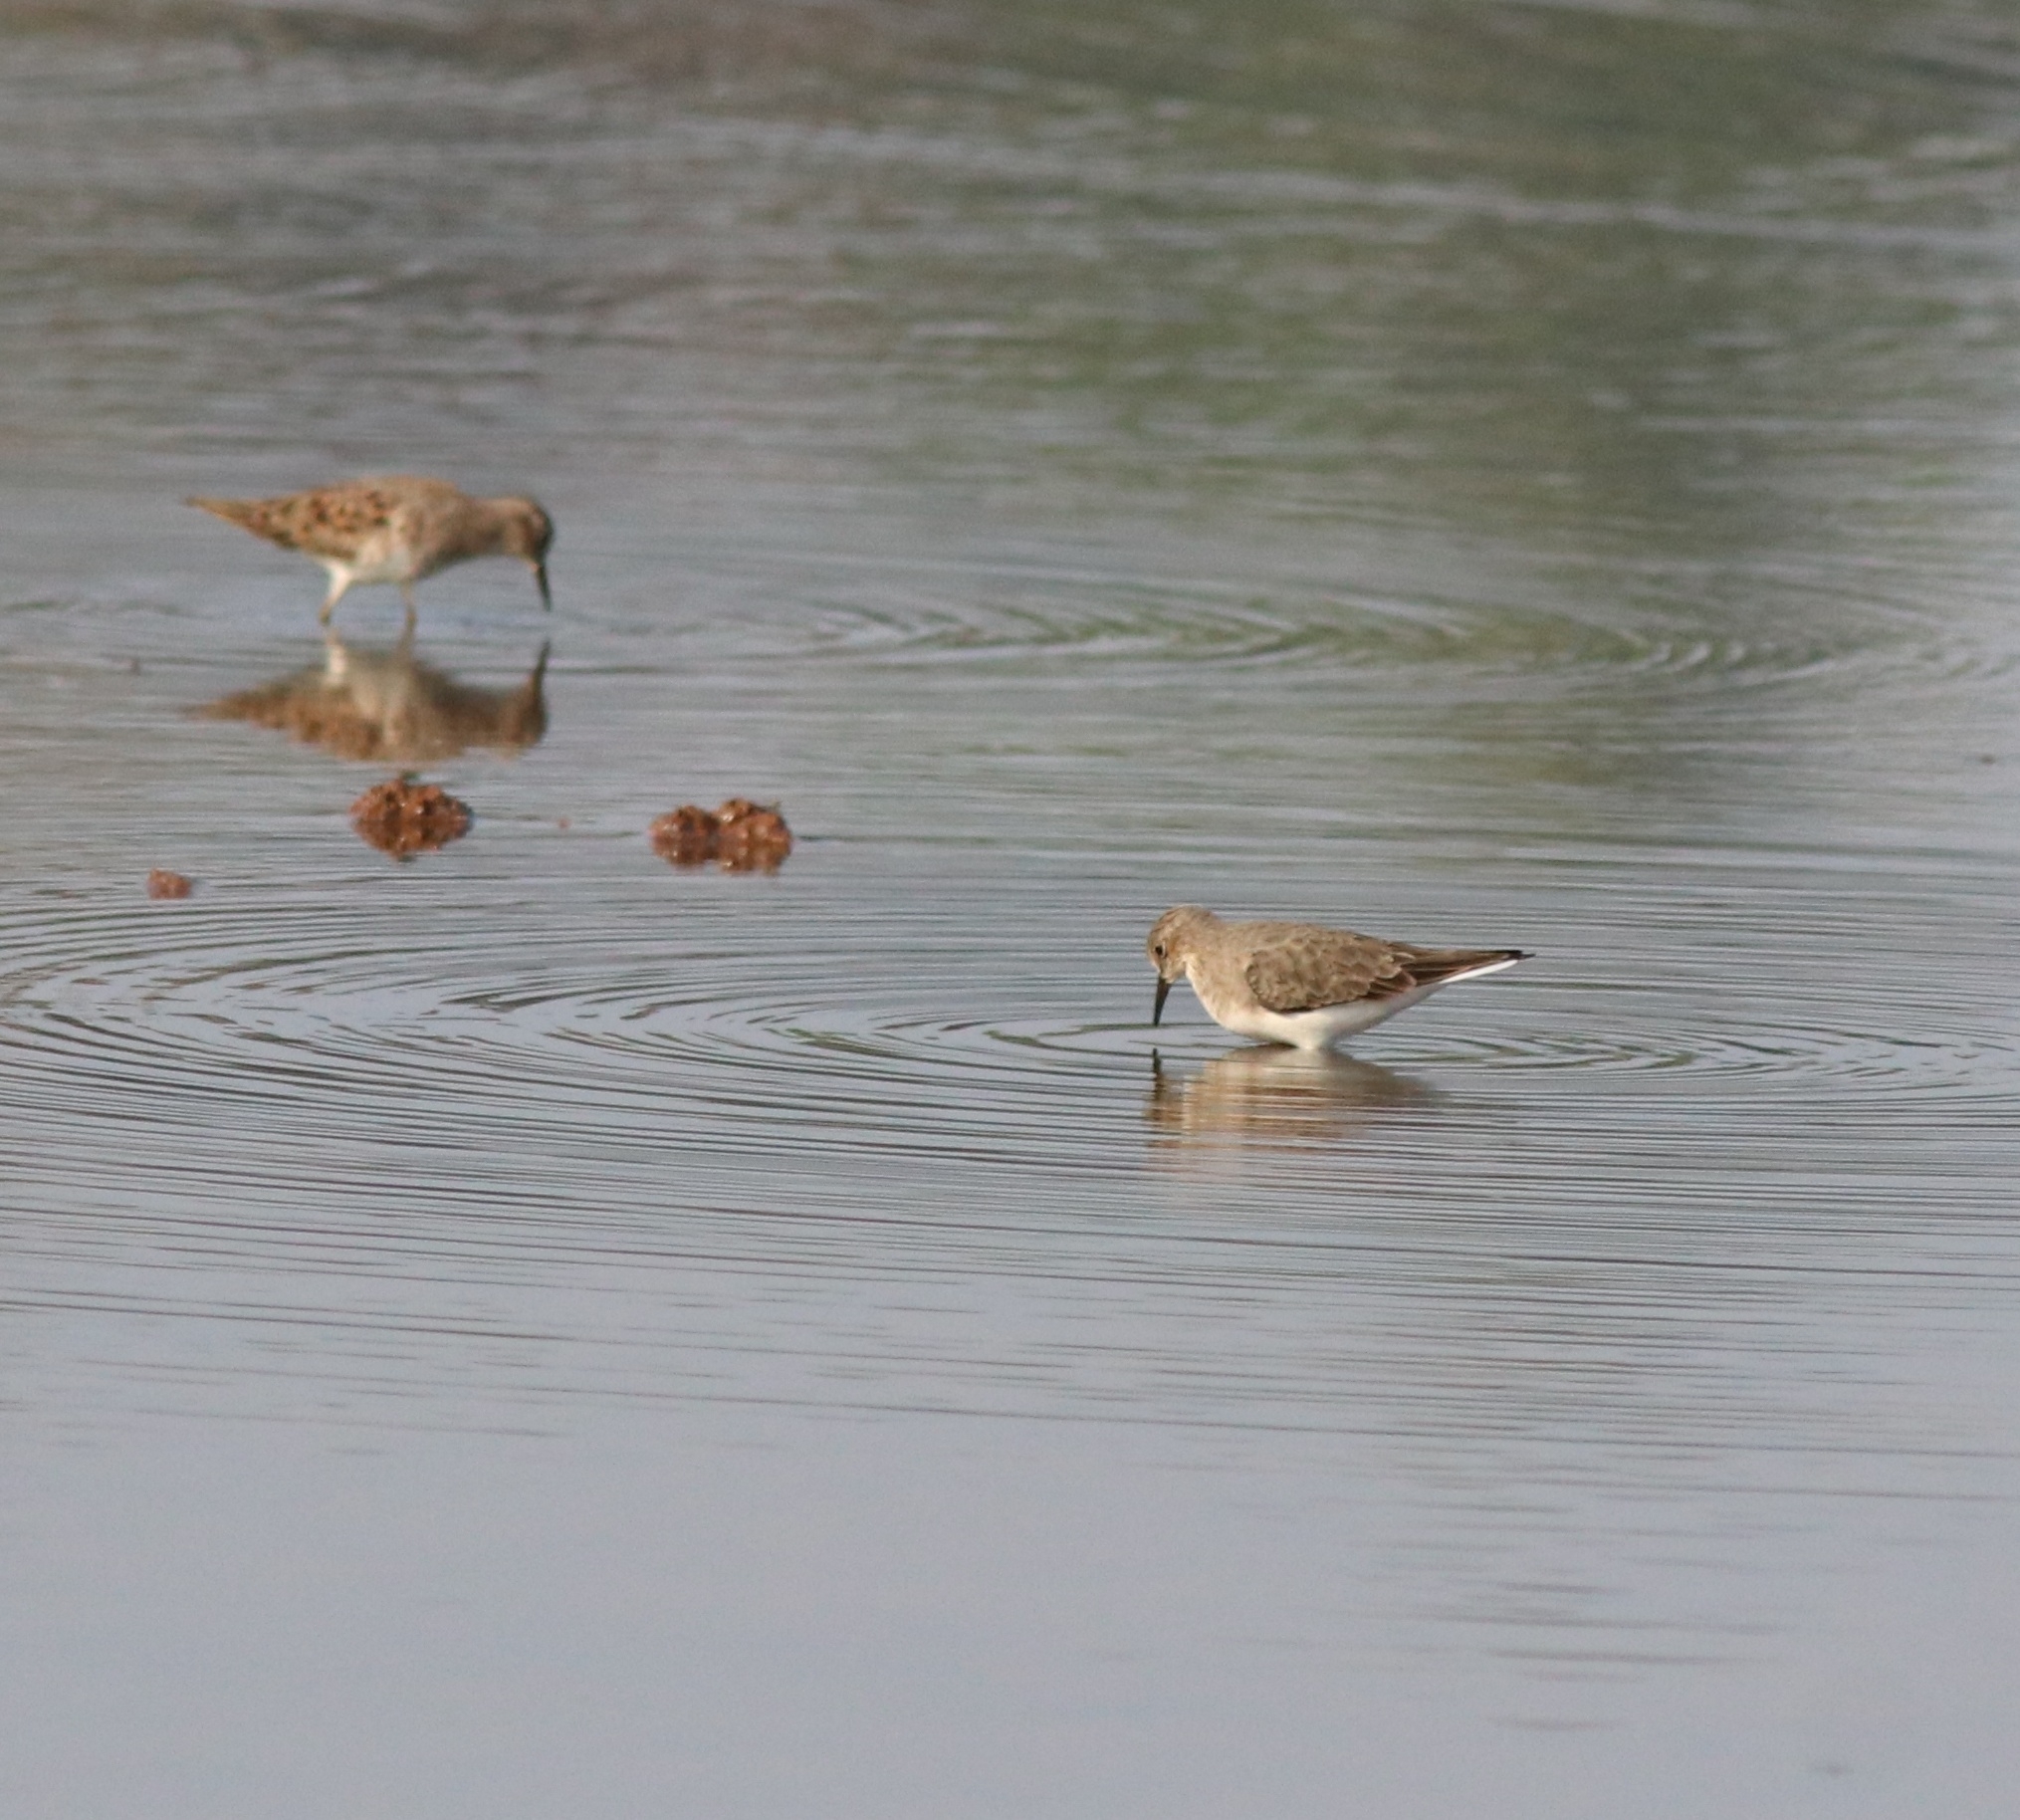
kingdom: Animalia
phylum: Chordata
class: Aves
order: Charadriiformes
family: Scolopacidae
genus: Calidris
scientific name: Calidris temminckii
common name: Temminck's stint
